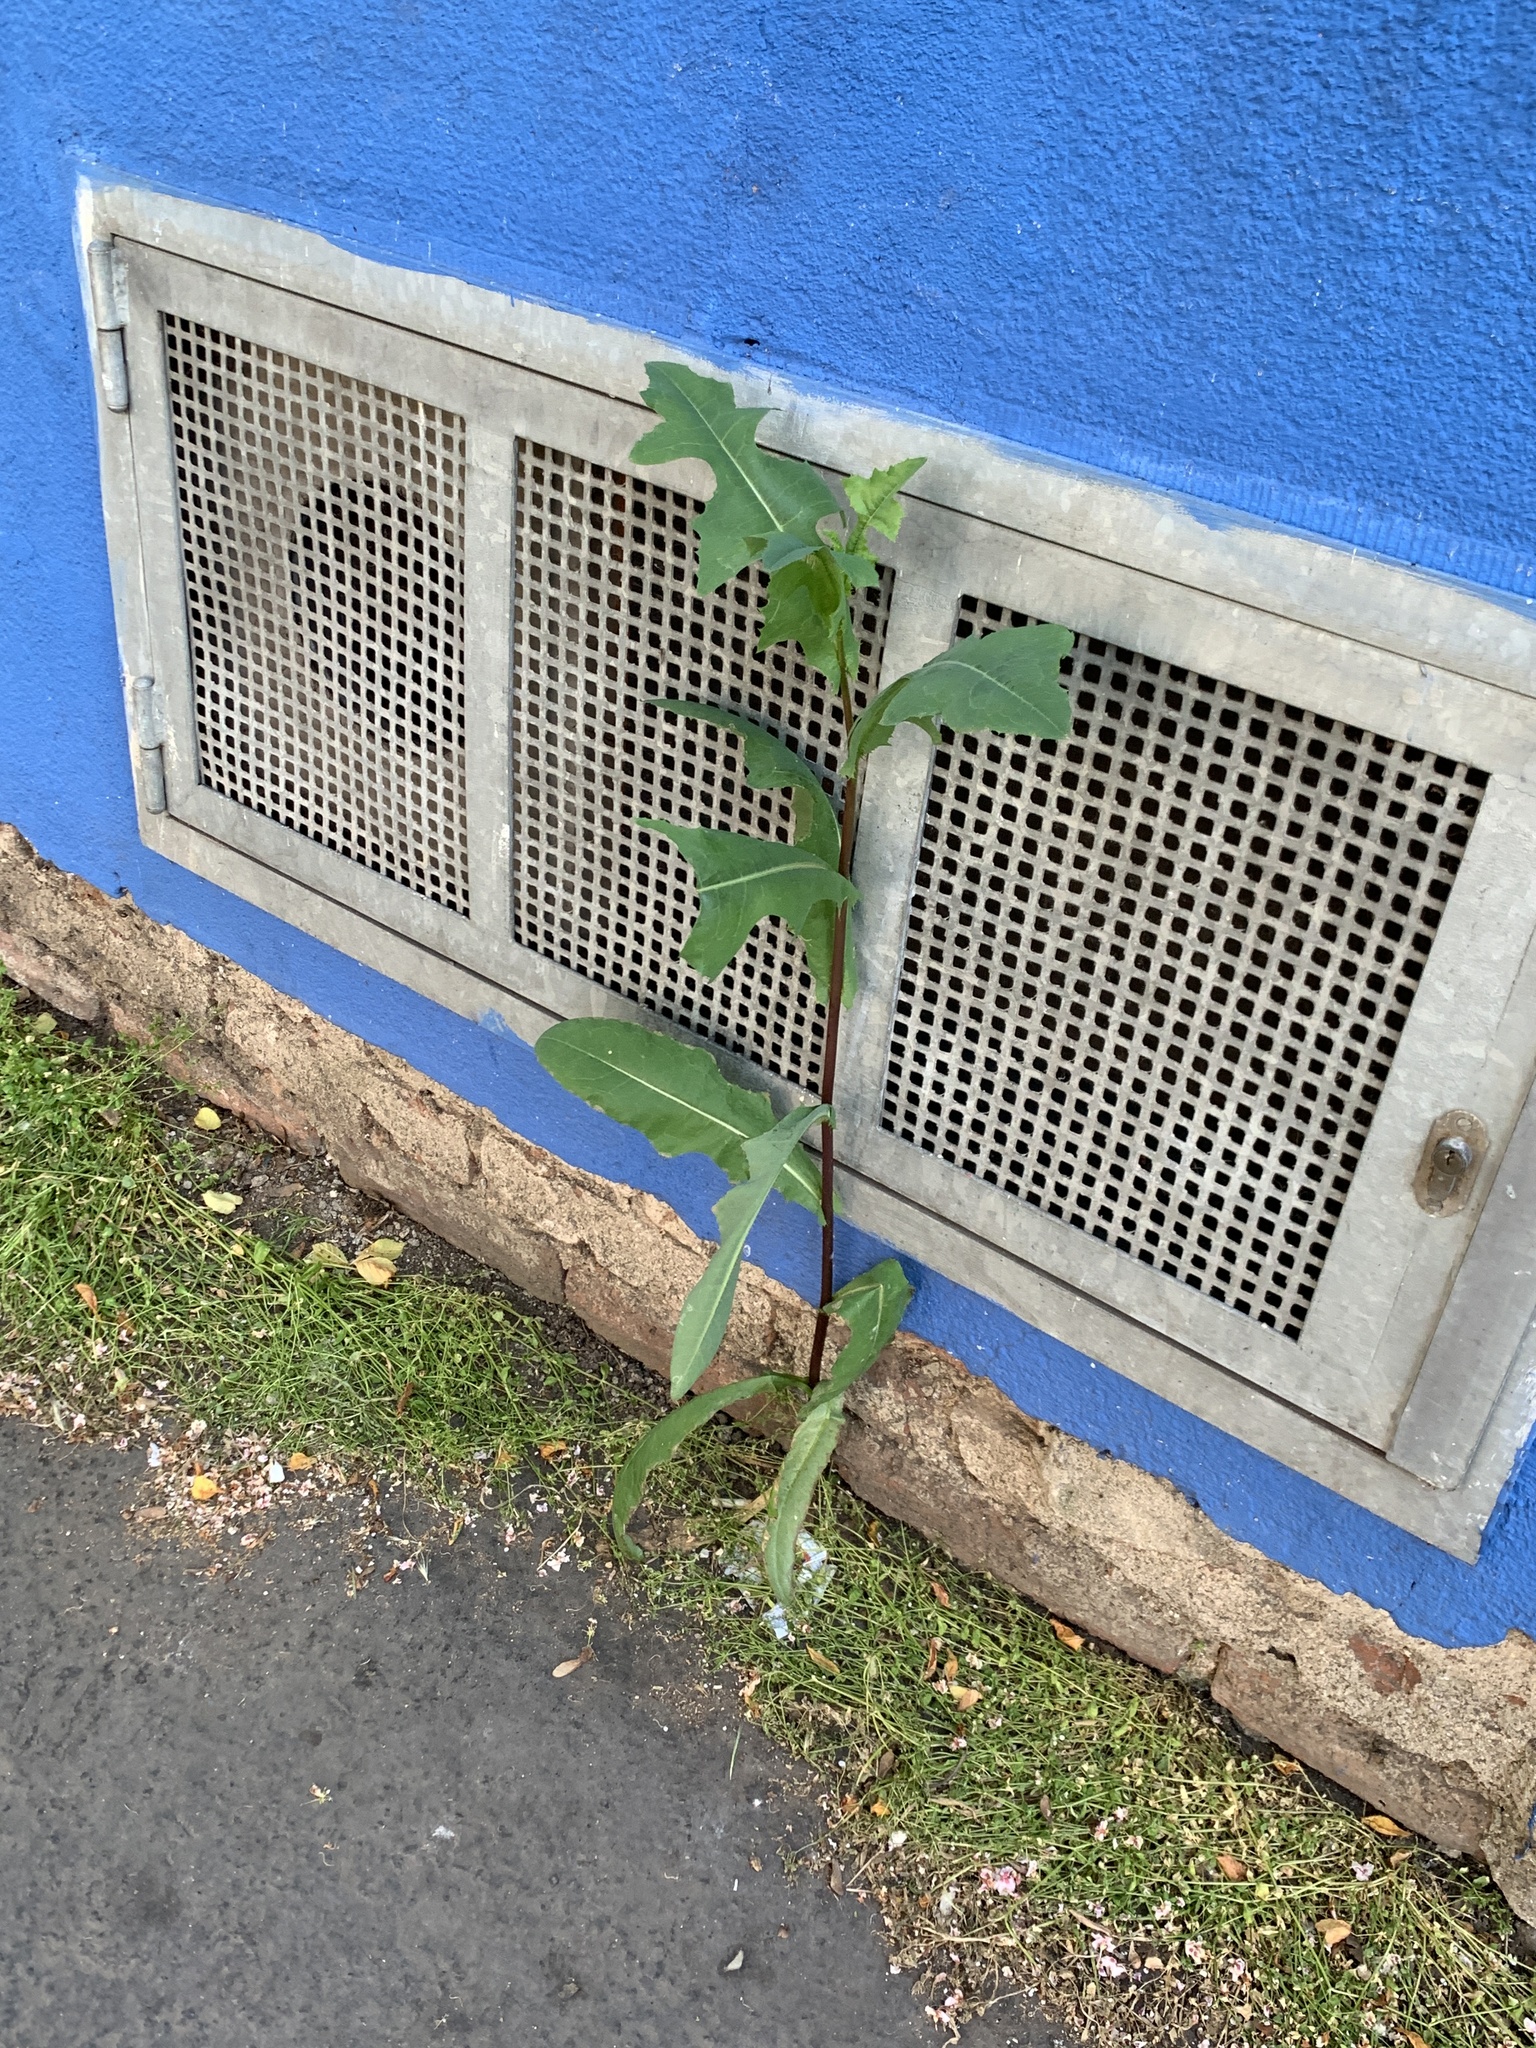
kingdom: Plantae
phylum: Tracheophyta
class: Magnoliopsida
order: Asterales
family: Asteraceae
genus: Lactuca
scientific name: Lactuca serriola
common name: Prickly lettuce
